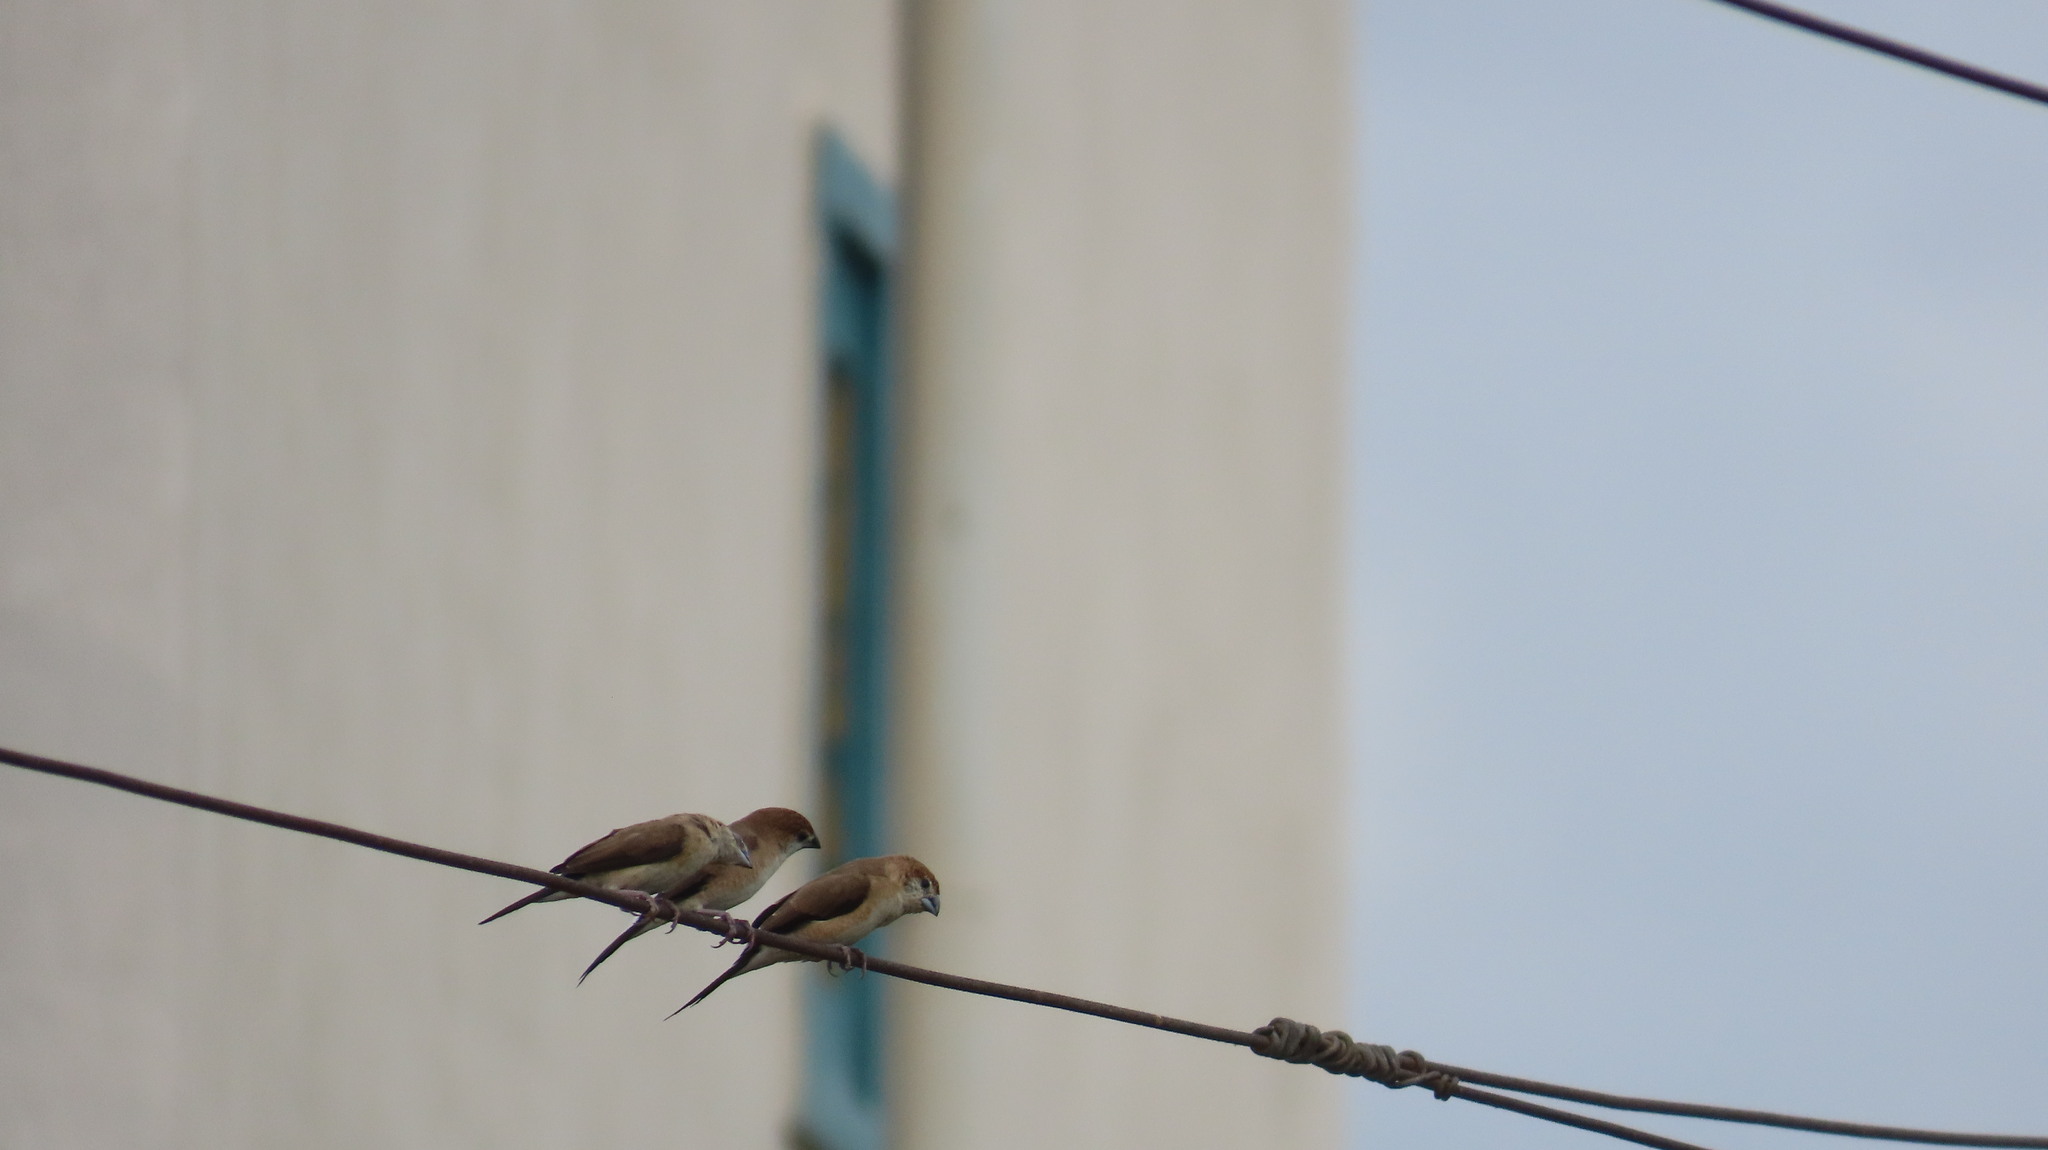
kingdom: Animalia
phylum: Chordata
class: Aves
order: Passeriformes
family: Estrildidae
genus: Euodice
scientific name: Euodice malabarica
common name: Indian silverbill
